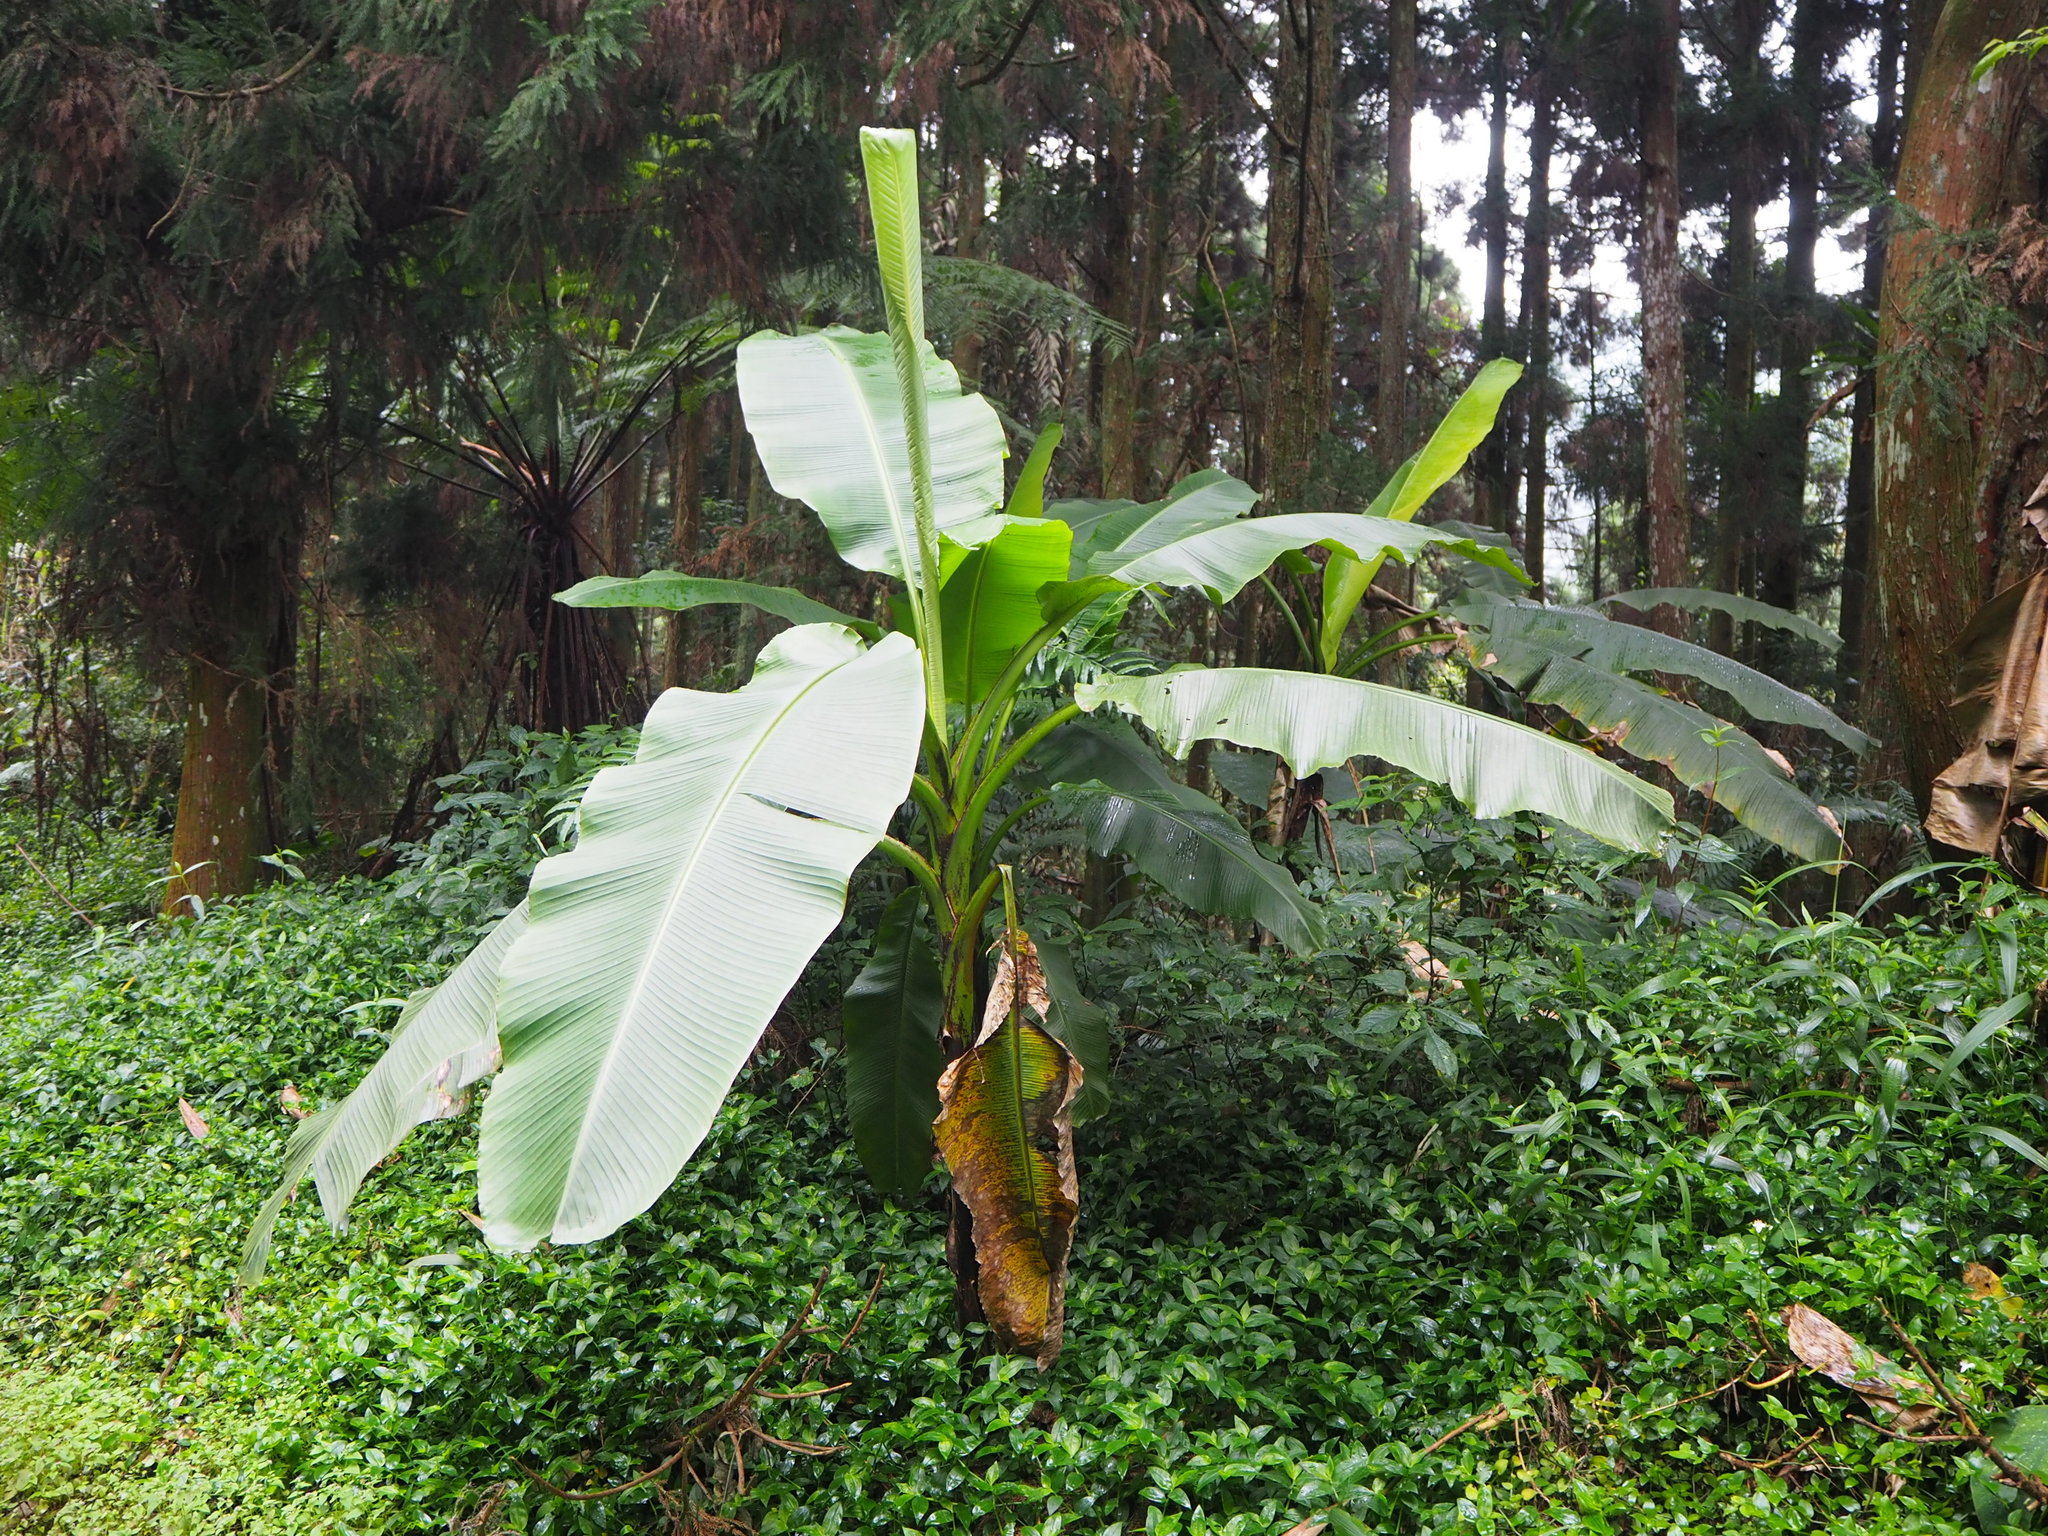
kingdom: Plantae
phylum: Tracheophyta
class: Liliopsida
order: Zingiberales
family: Musaceae
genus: Musa
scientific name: Musa itinerans
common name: Yunnan banana
